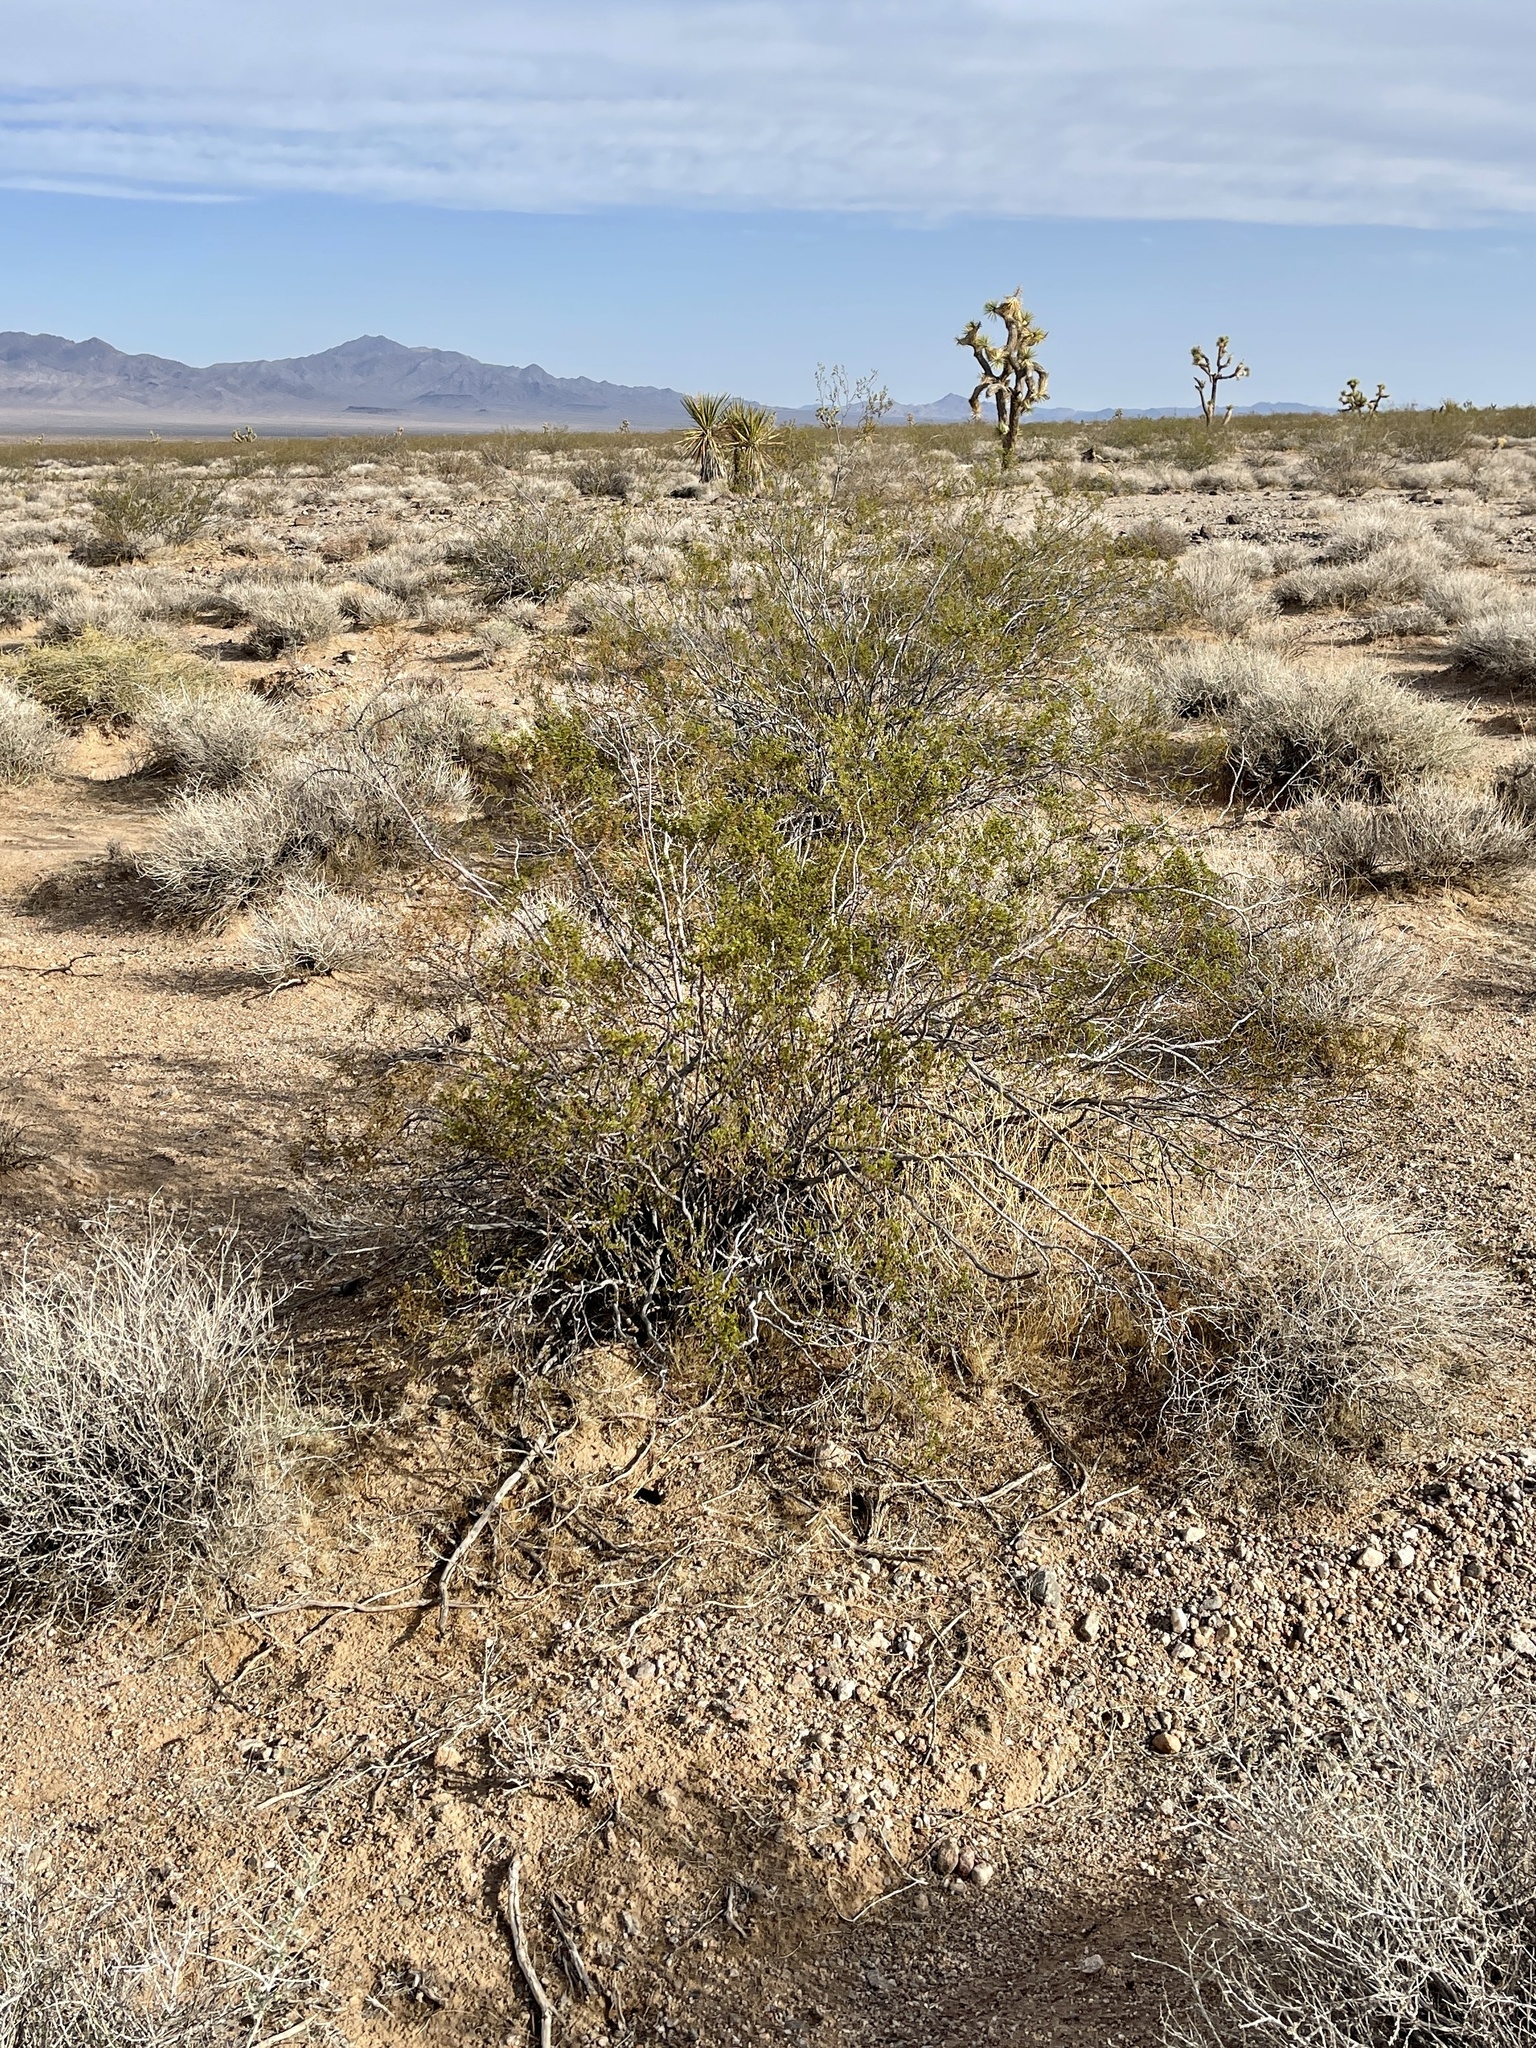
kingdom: Plantae
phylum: Tracheophyta
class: Magnoliopsida
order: Zygophyllales
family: Zygophyllaceae
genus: Larrea
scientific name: Larrea tridentata
